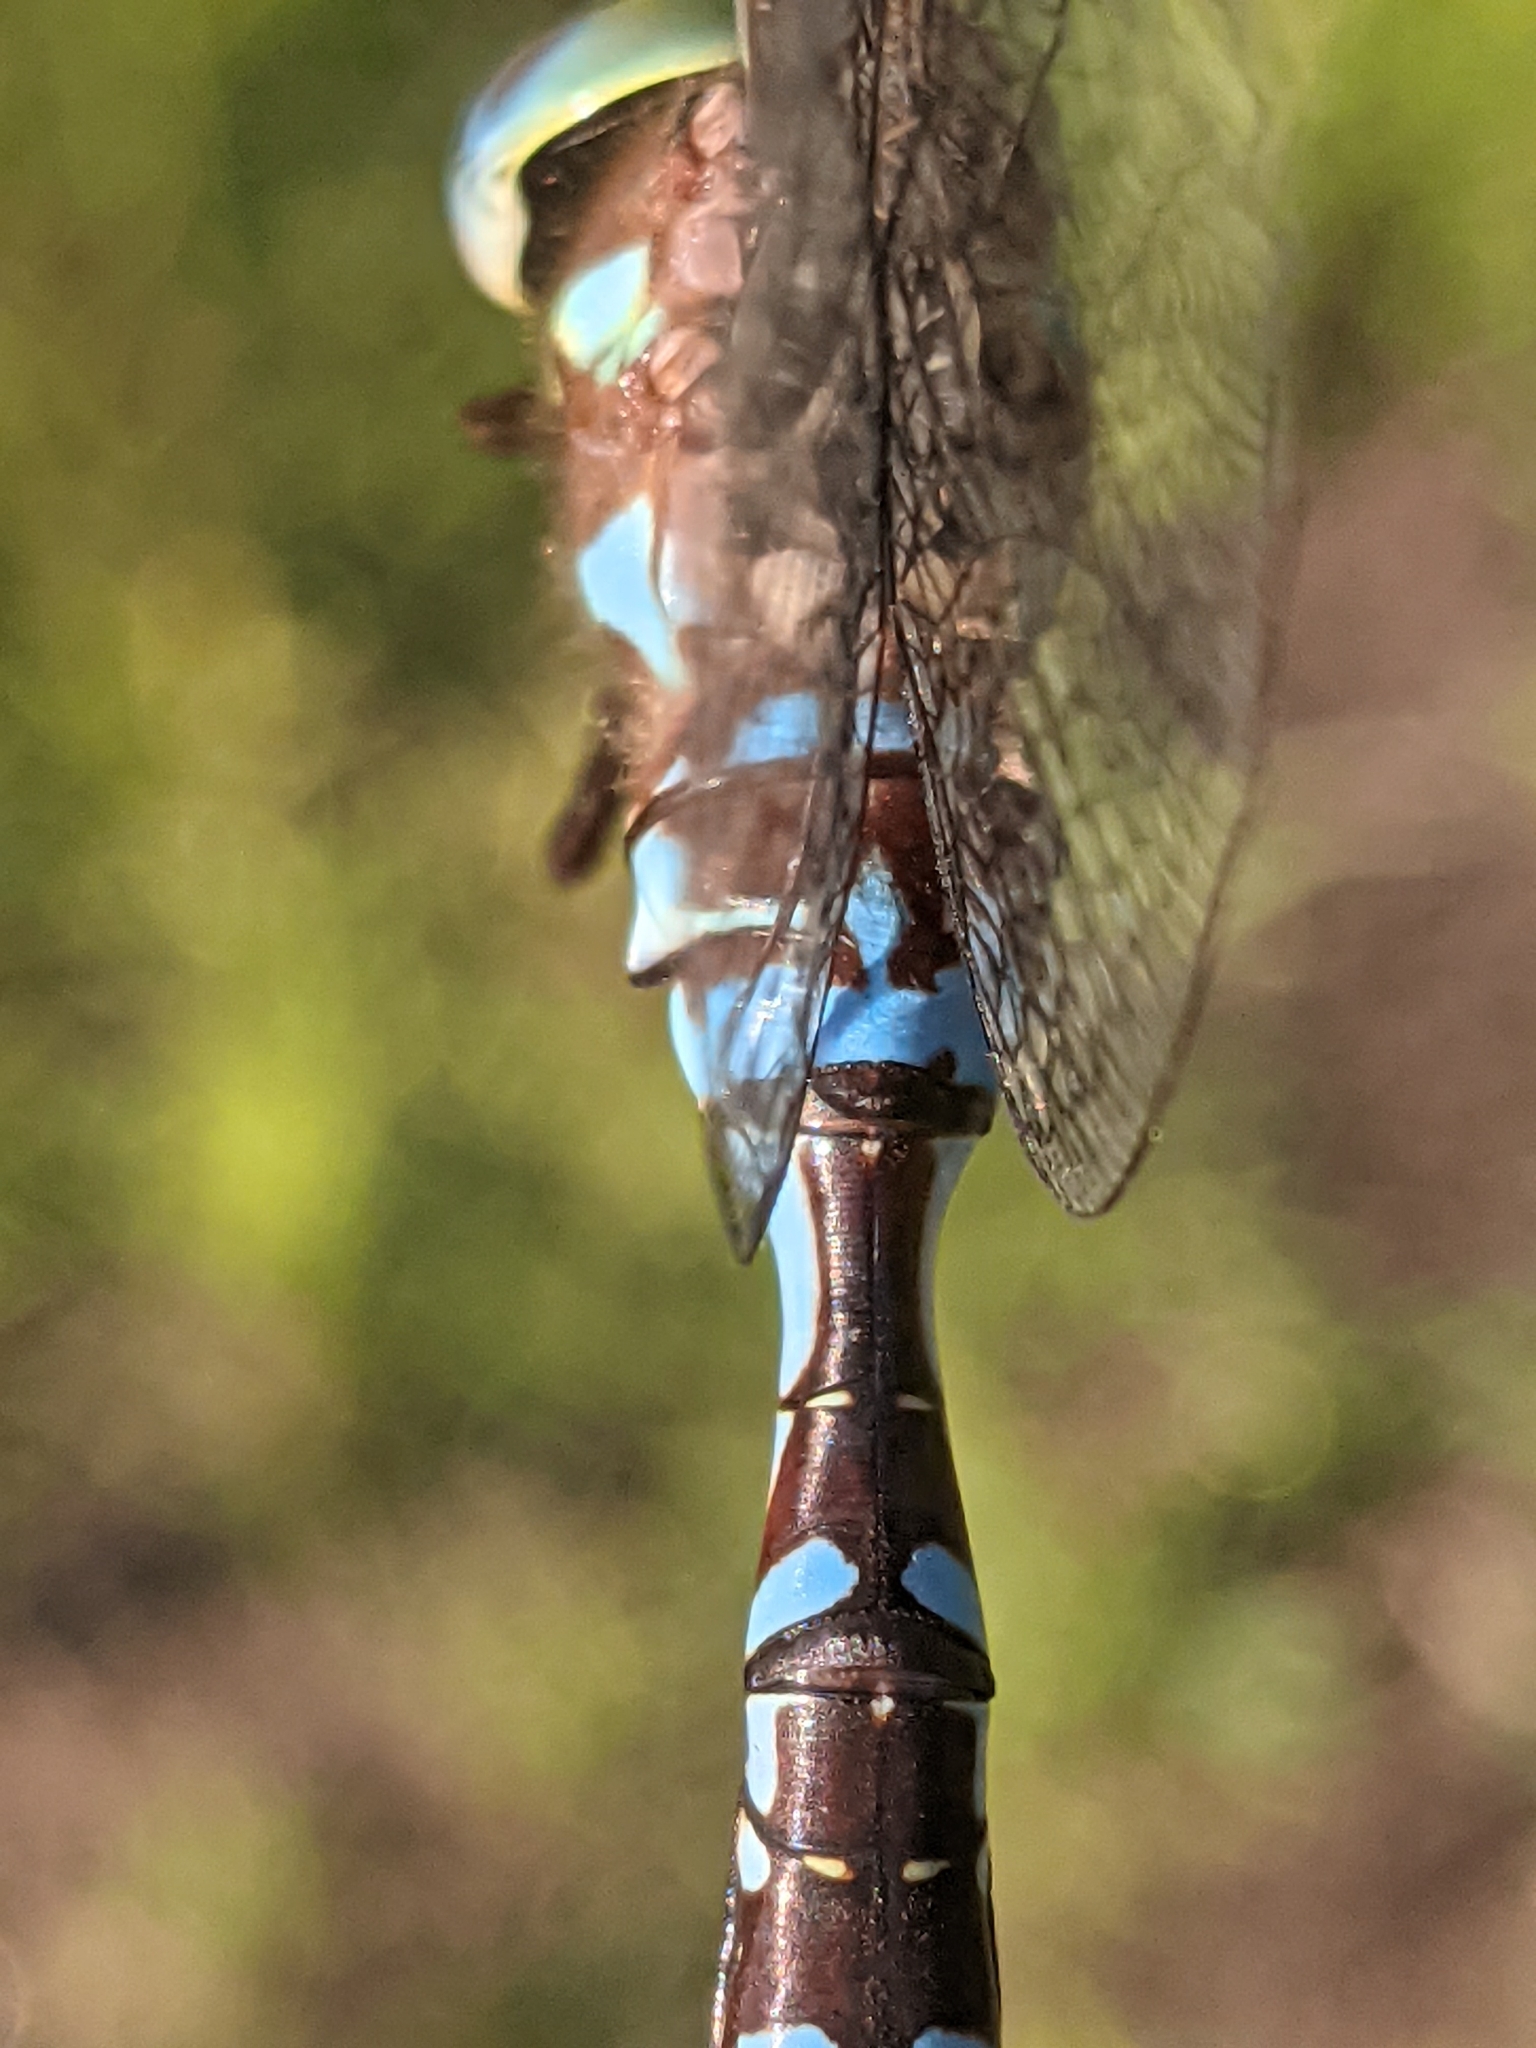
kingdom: Animalia
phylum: Arthropoda
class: Insecta
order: Odonata
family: Aeshnidae
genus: Aeshna
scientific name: Aeshna constricta
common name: Lance-tipped darner
